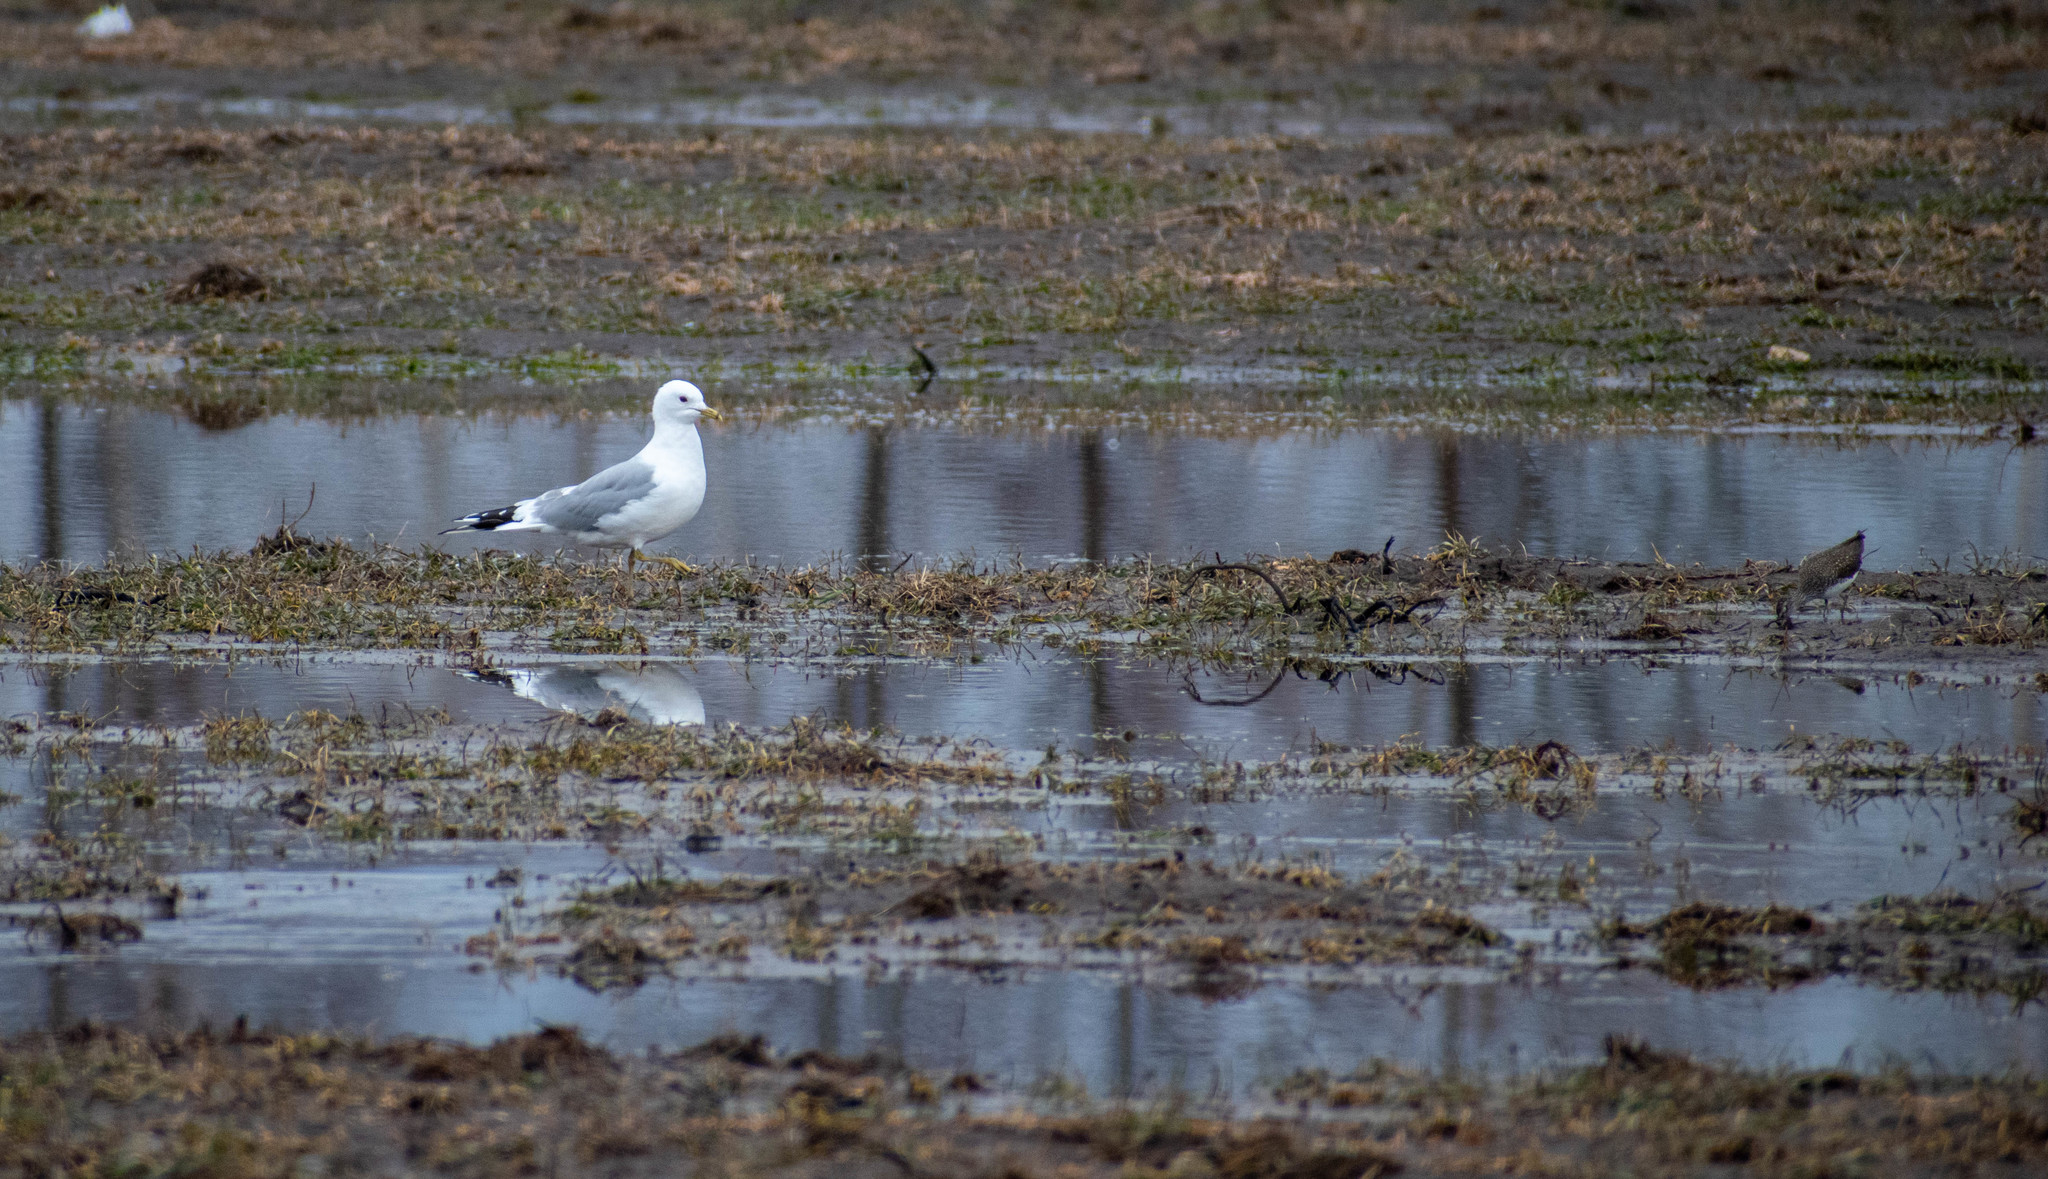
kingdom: Animalia
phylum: Chordata
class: Aves
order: Charadriiformes
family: Laridae
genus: Larus
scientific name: Larus canus
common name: Mew gull
